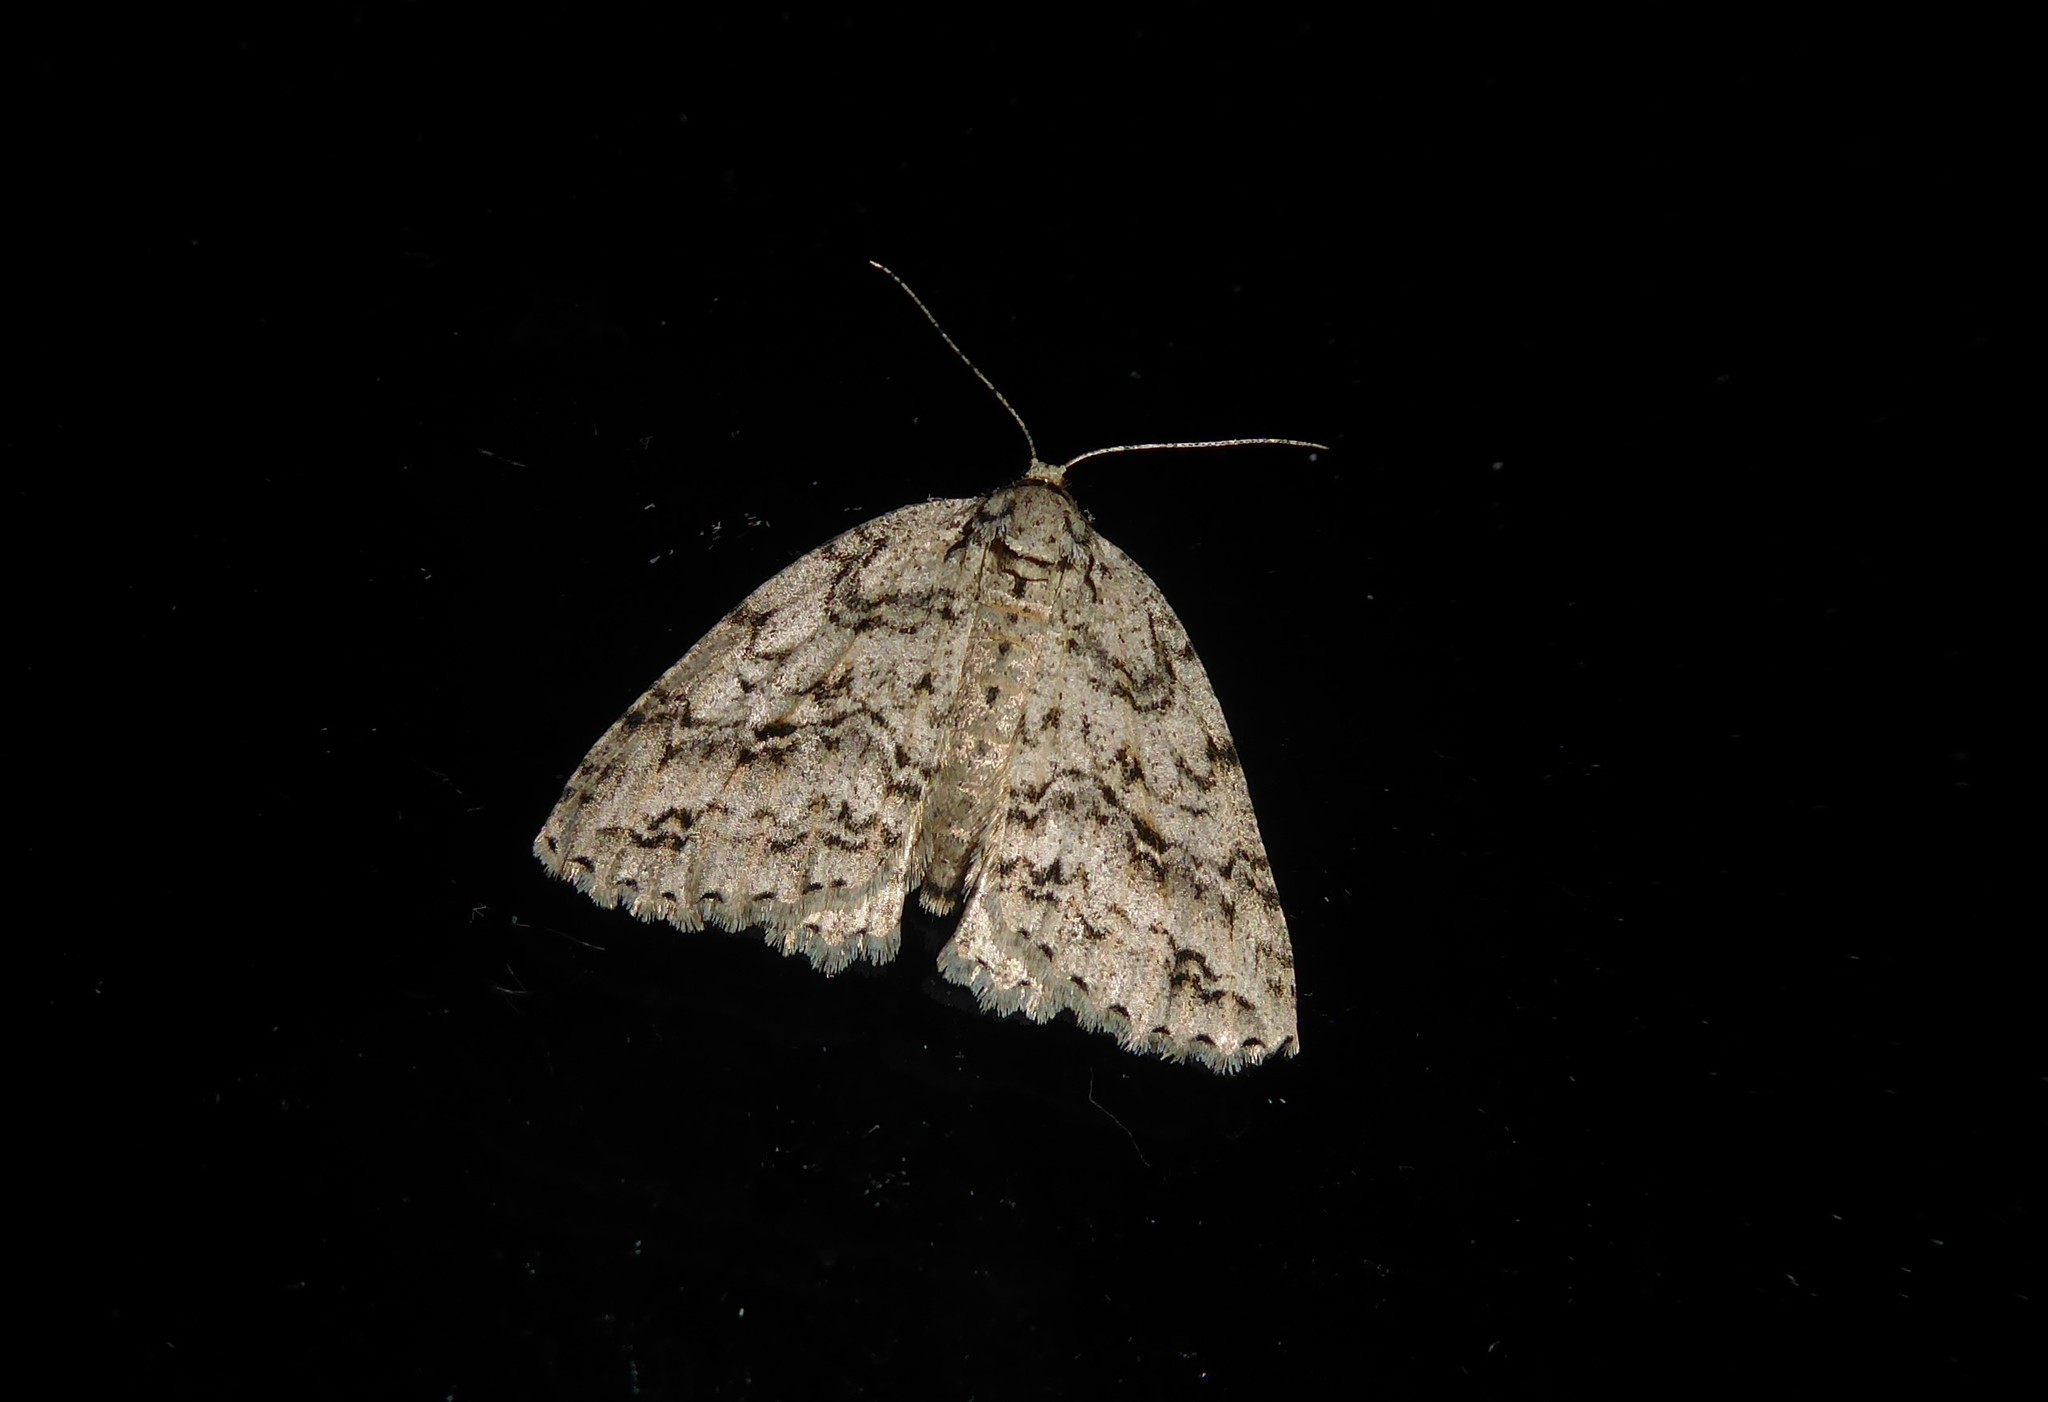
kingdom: Animalia
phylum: Arthropoda
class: Insecta
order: Lepidoptera
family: Geometridae
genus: Pseudocoremia
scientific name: Pseudocoremia rudisata
